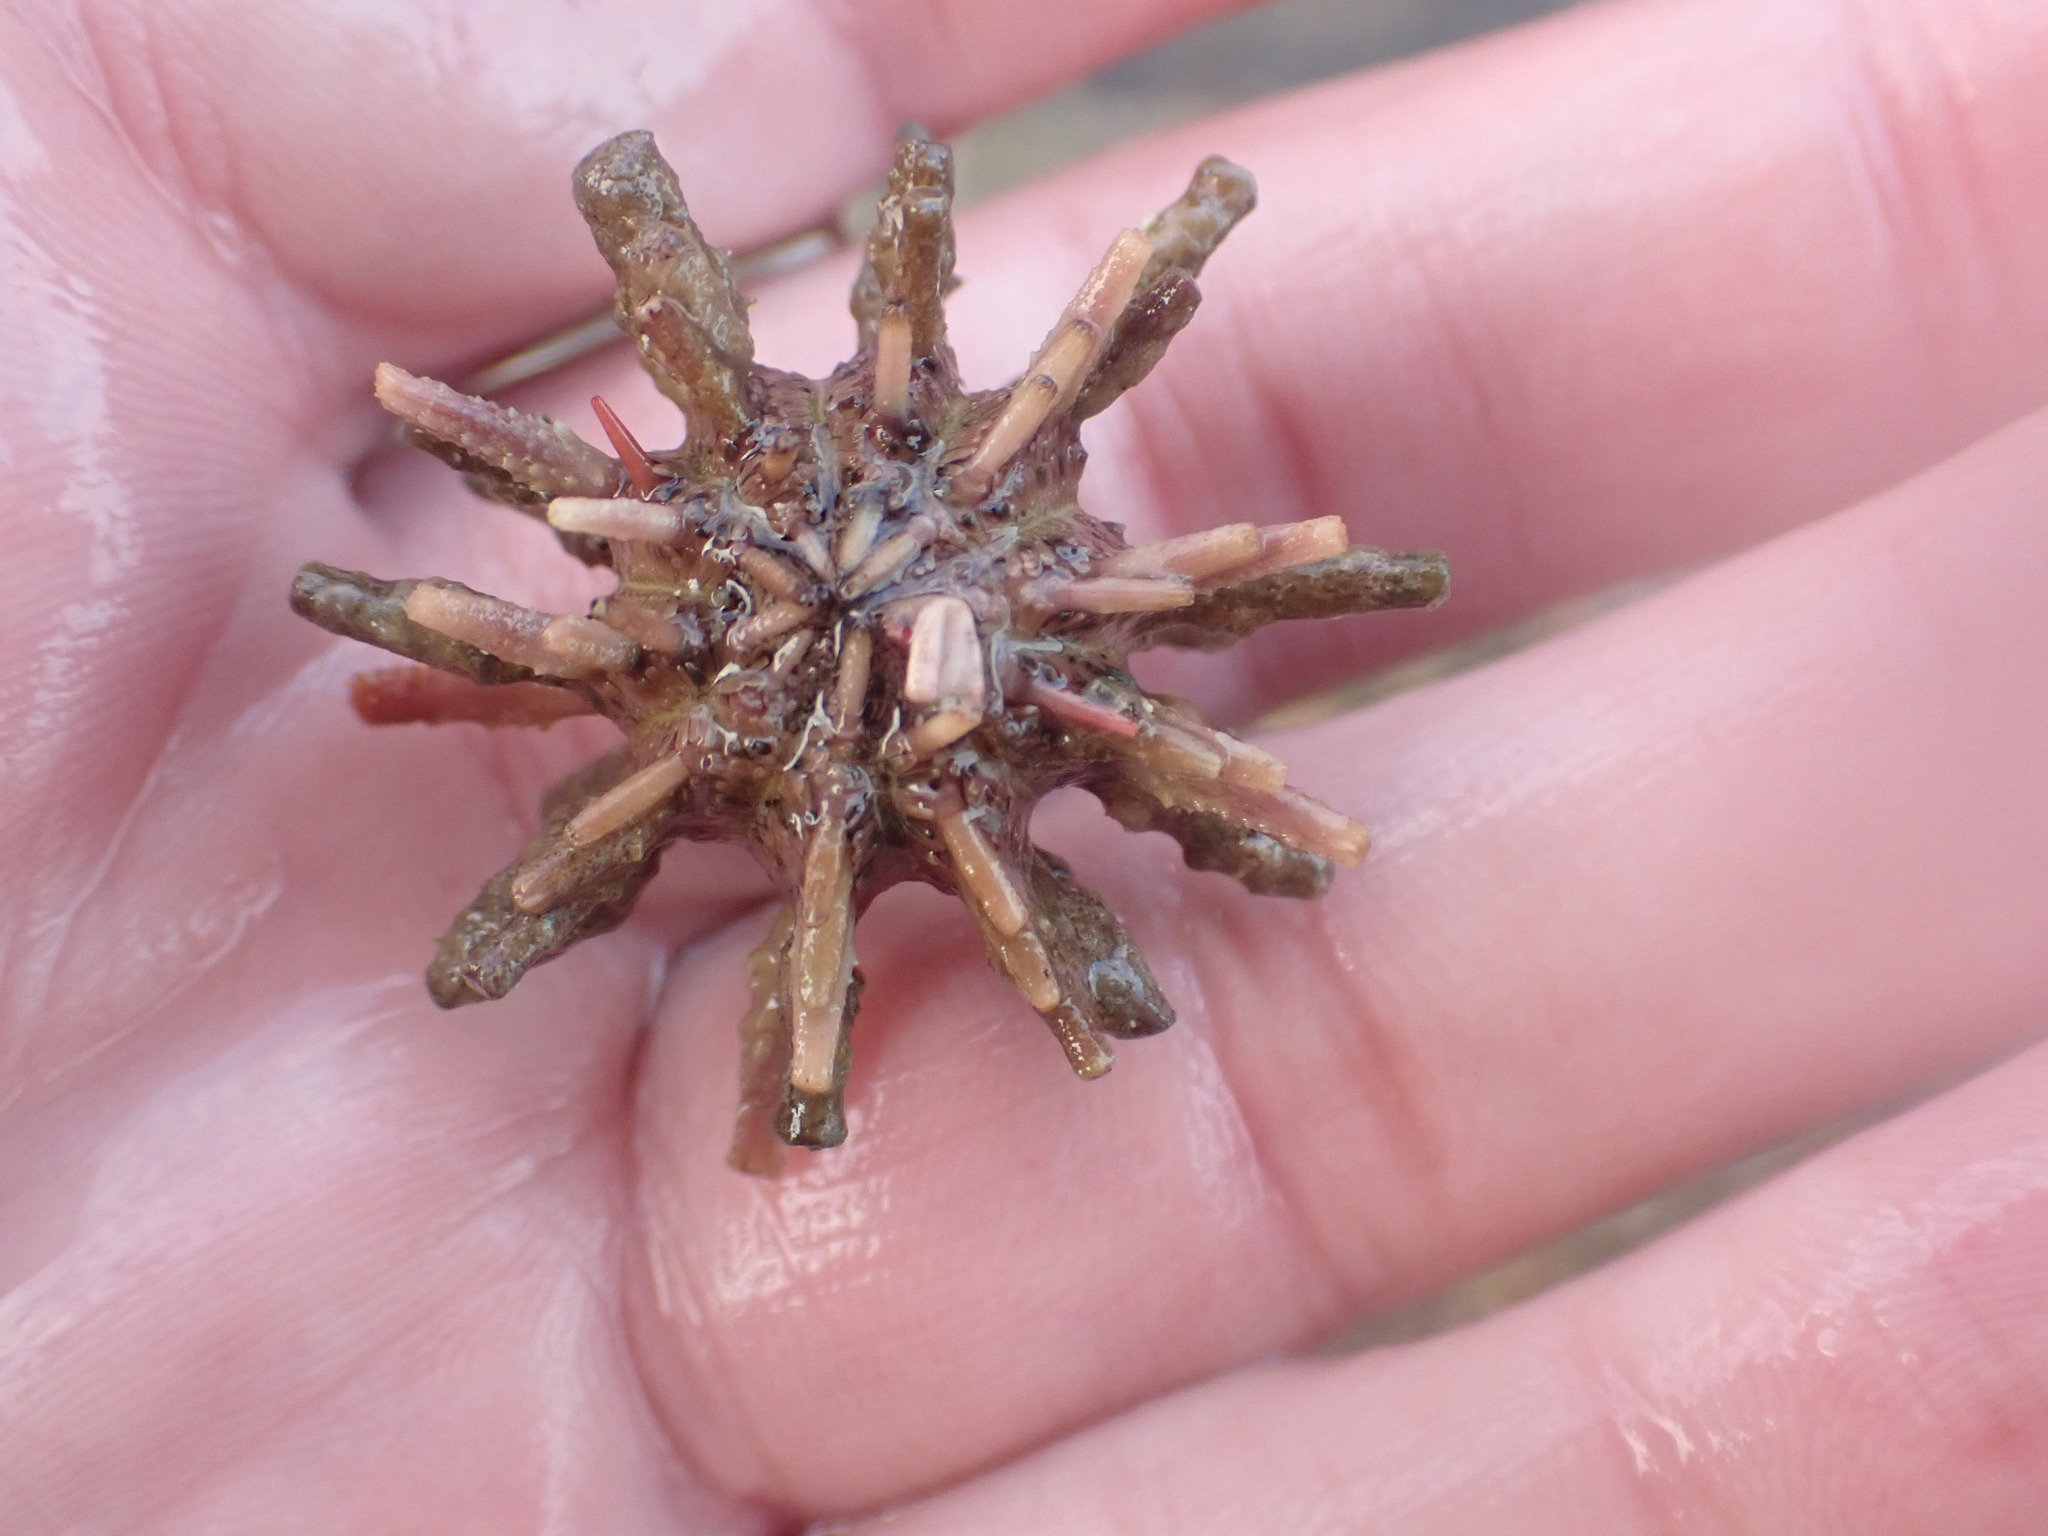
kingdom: Animalia
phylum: Echinodermata
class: Echinoidea
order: Cidaroida
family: Cidaridae
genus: Goniocidaris
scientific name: Goniocidaris corona
